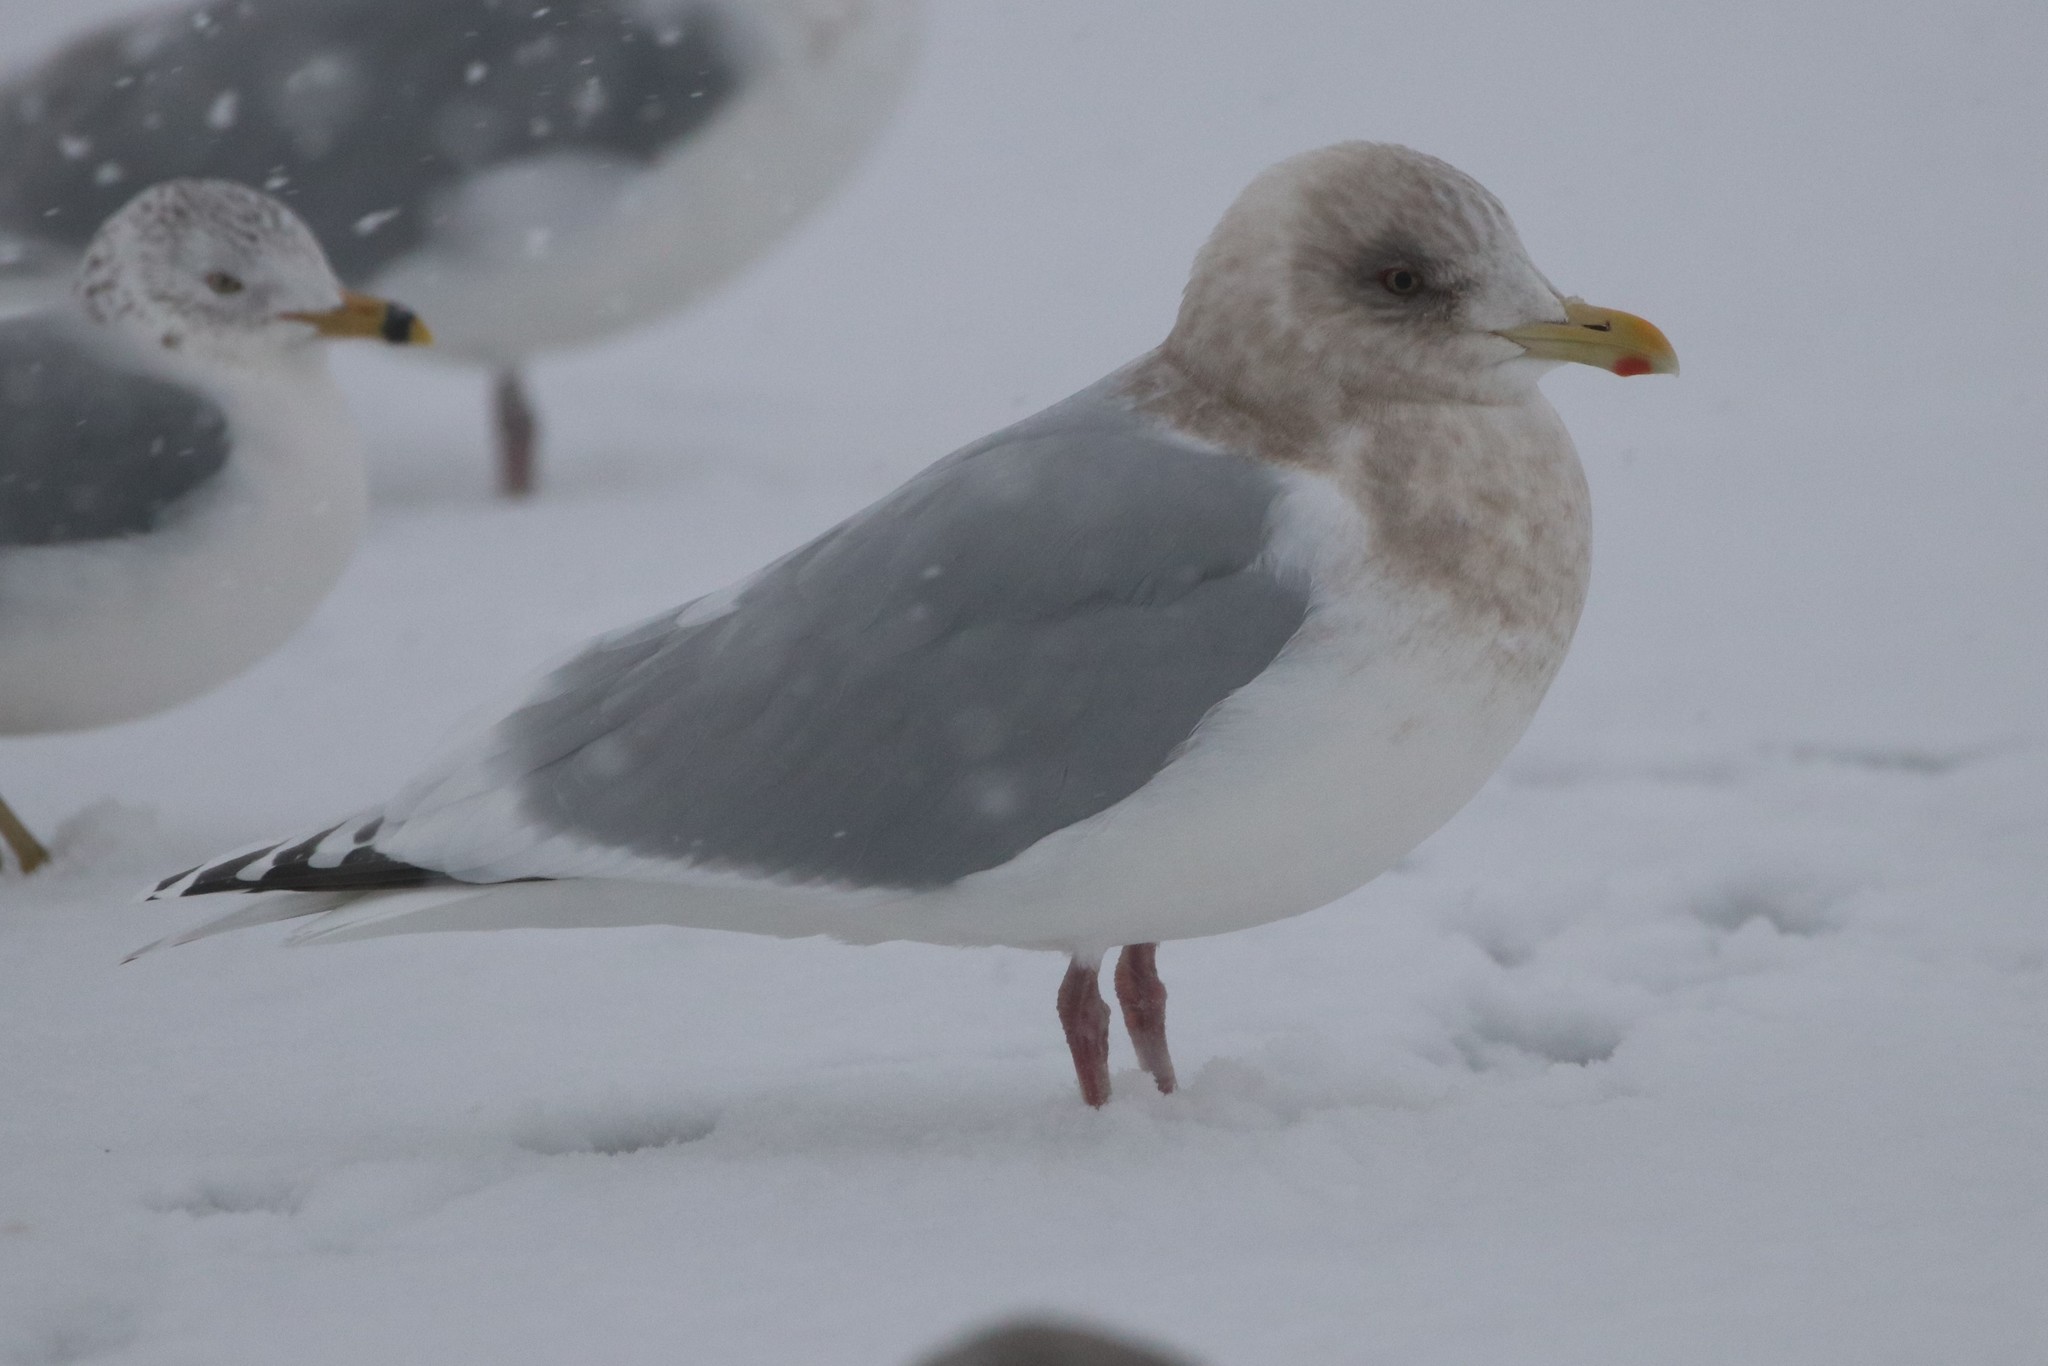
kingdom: Animalia
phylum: Chordata
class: Aves
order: Charadriiformes
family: Laridae
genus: Larus
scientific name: Larus glaucoides
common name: Iceland gull
